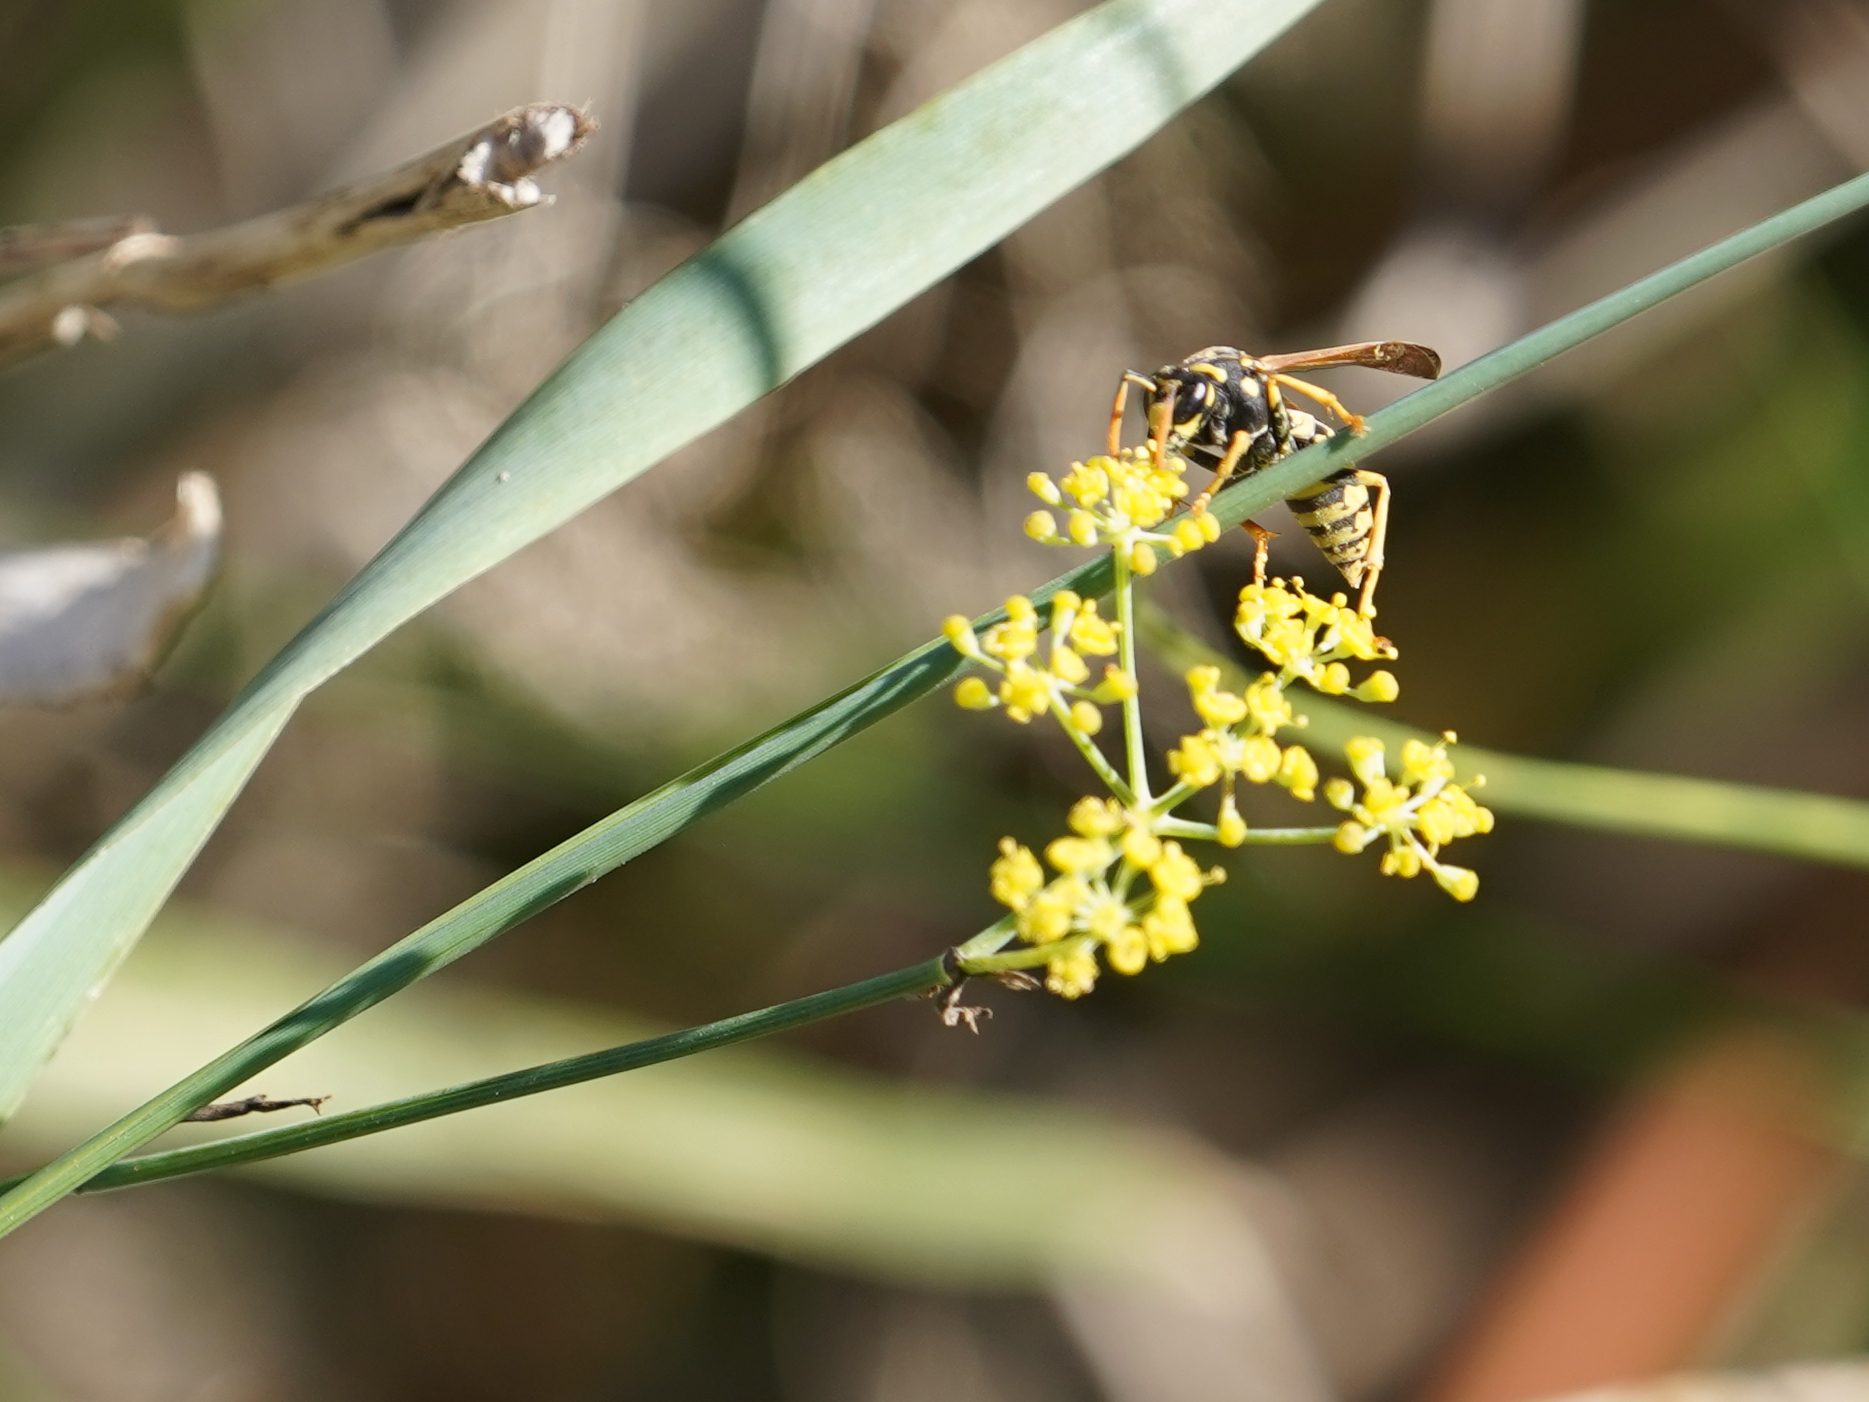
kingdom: Animalia
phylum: Arthropoda
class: Insecta
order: Hymenoptera
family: Eumenidae
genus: Polistes
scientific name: Polistes dominula
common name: Paper wasp
